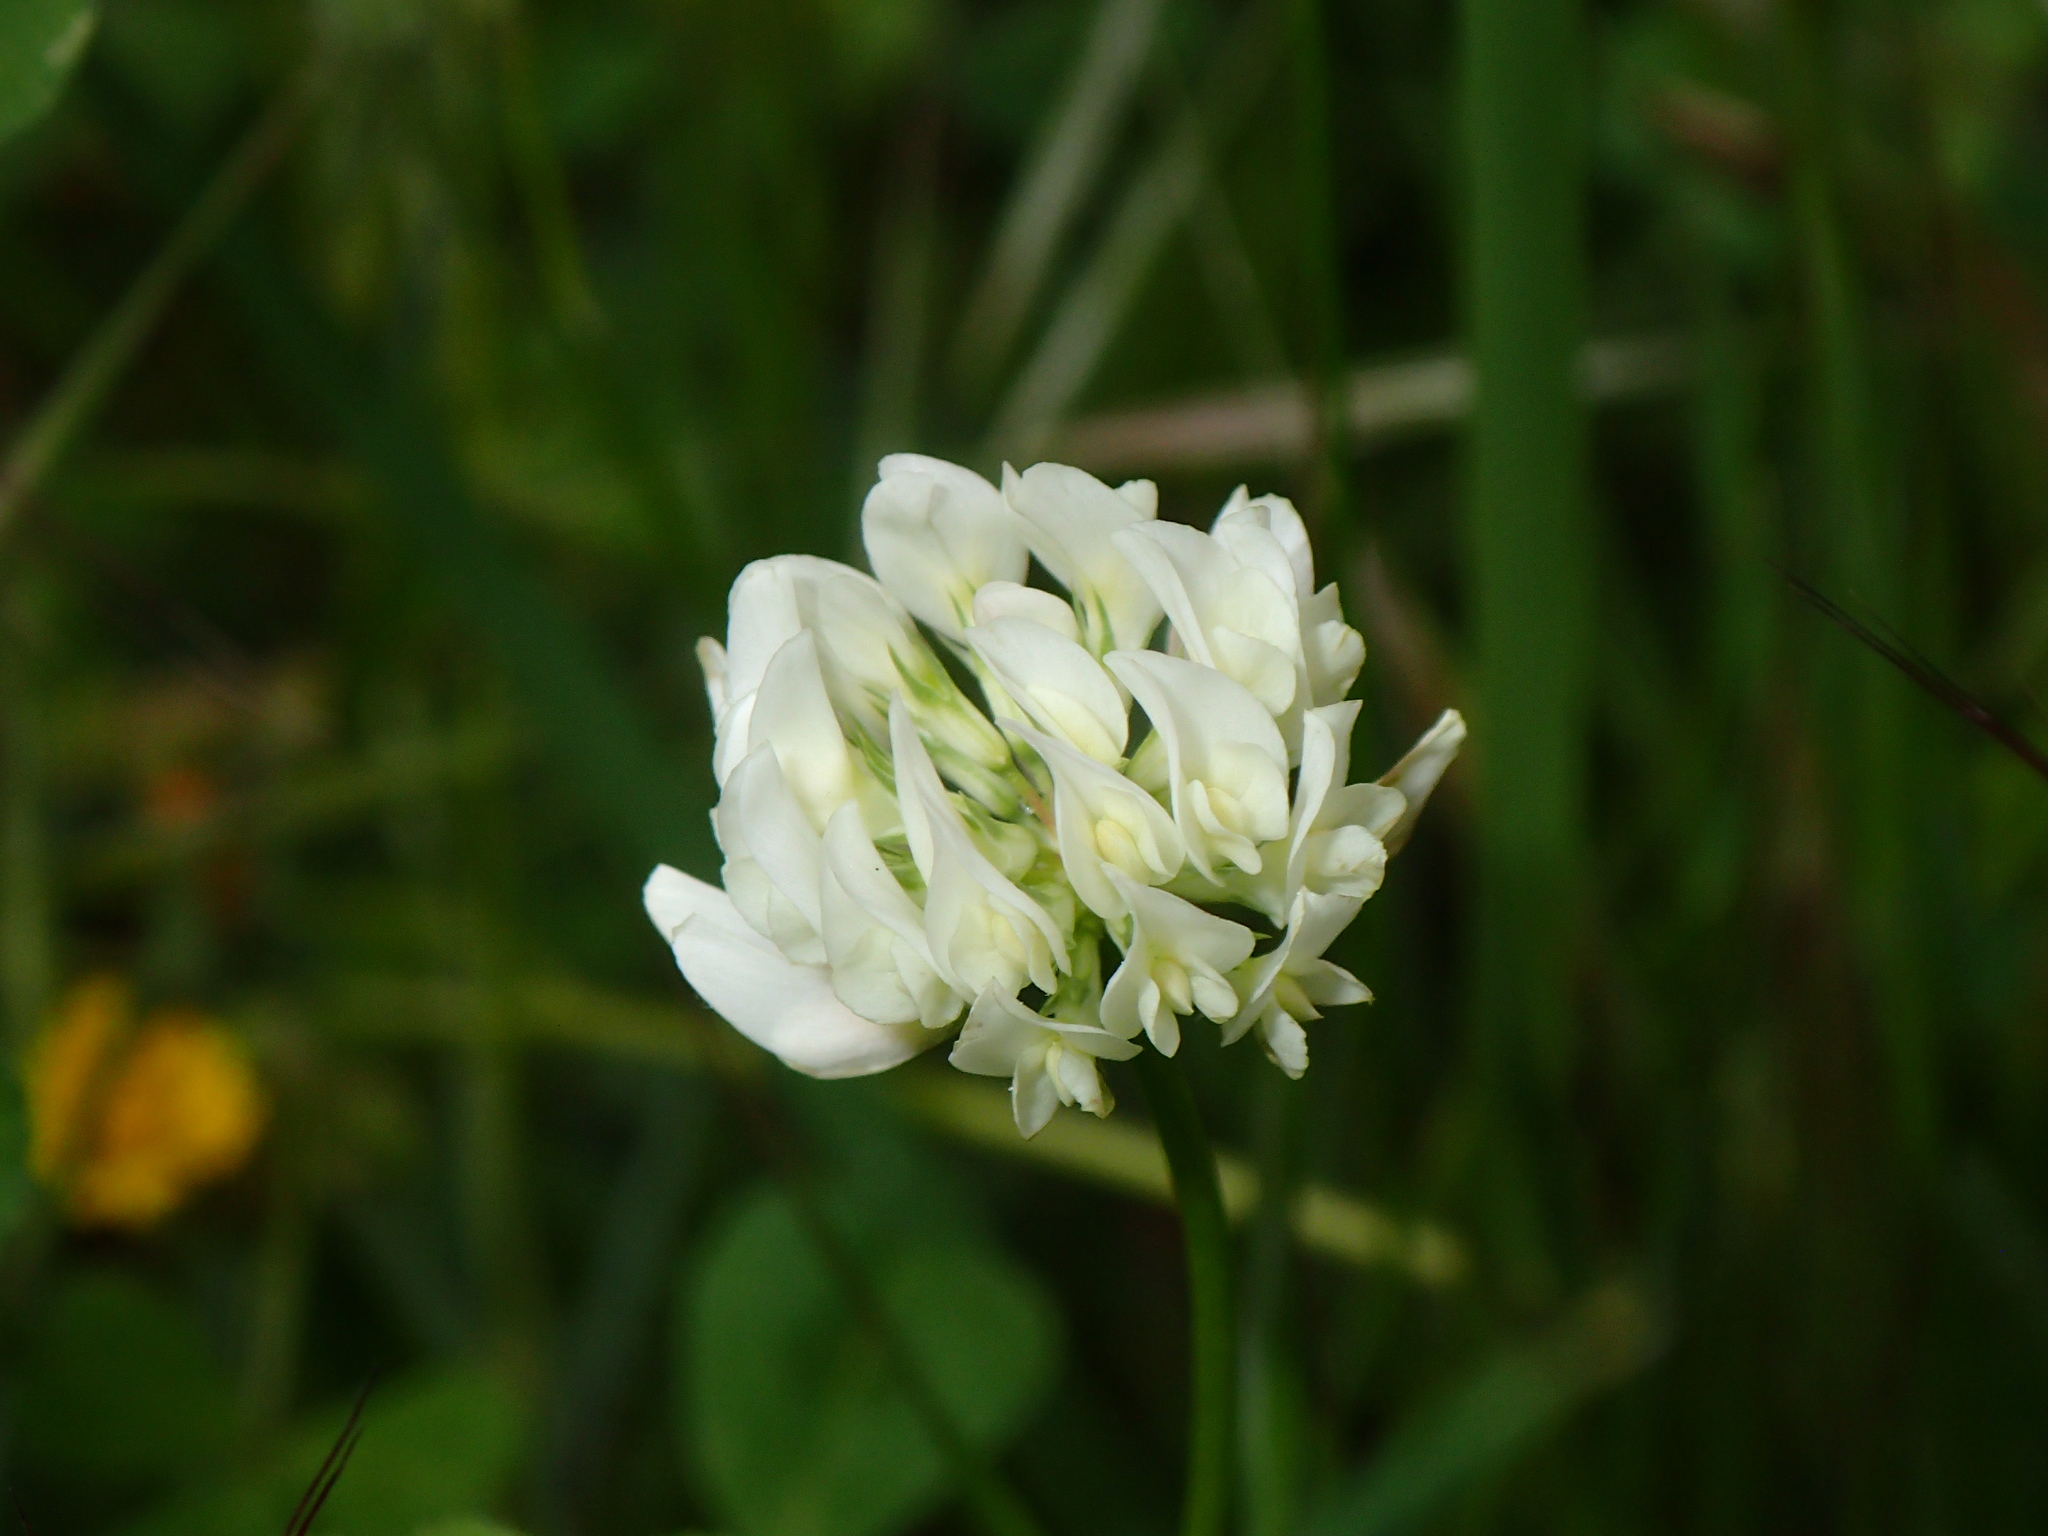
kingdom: Plantae
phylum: Tracheophyta
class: Magnoliopsida
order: Fabales
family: Fabaceae
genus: Trifolium
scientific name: Trifolium repens
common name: White clover
